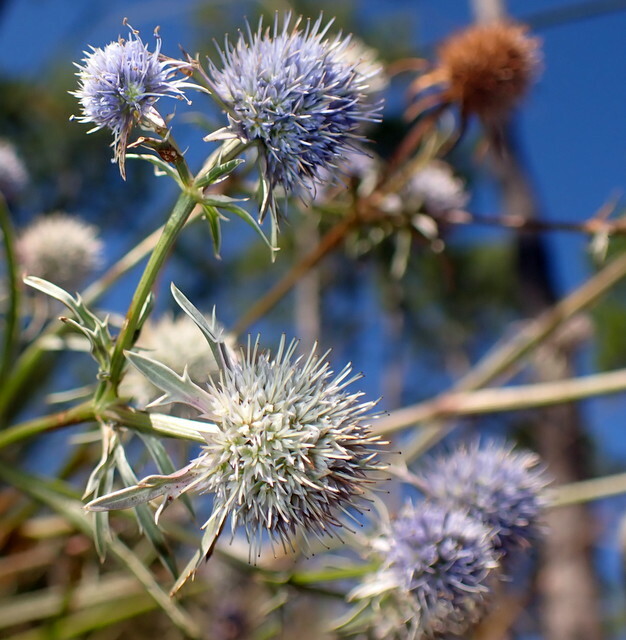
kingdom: Plantae
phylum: Tracheophyta
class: Magnoliopsida
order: Apiales
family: Apiaceae
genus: Eryngium
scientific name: Eryngium aquaticum
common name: Water eryngo
